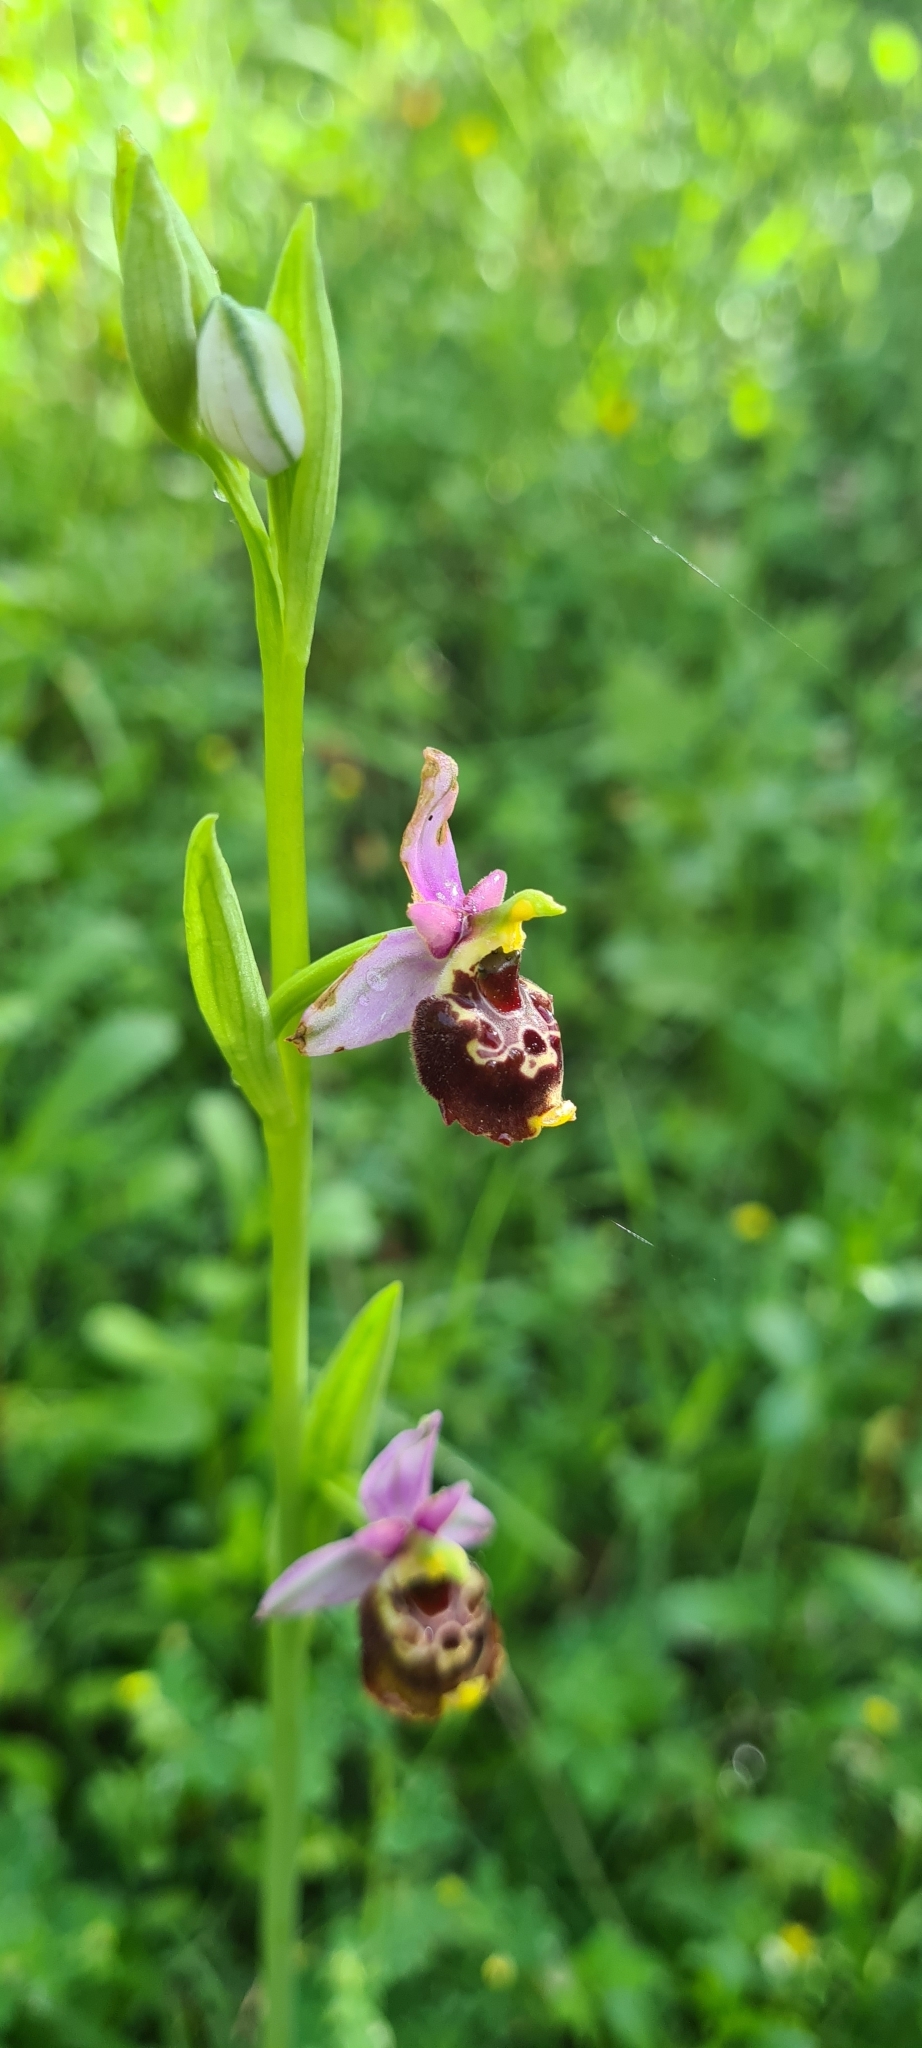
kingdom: Plantae
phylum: Tracheophyta
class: Liliopsida
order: Asparagales
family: Orchidaceae
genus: Ophrys
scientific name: Ophrys holosericea
